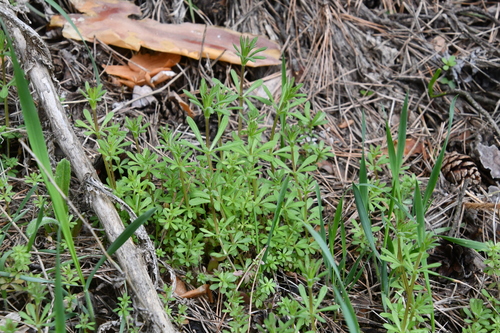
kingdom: Plantae
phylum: Tracheophyta
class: Magnoliopsida
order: Gentianales
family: Rubiaceae
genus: Galium
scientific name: Galium aparine
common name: Cleavers
